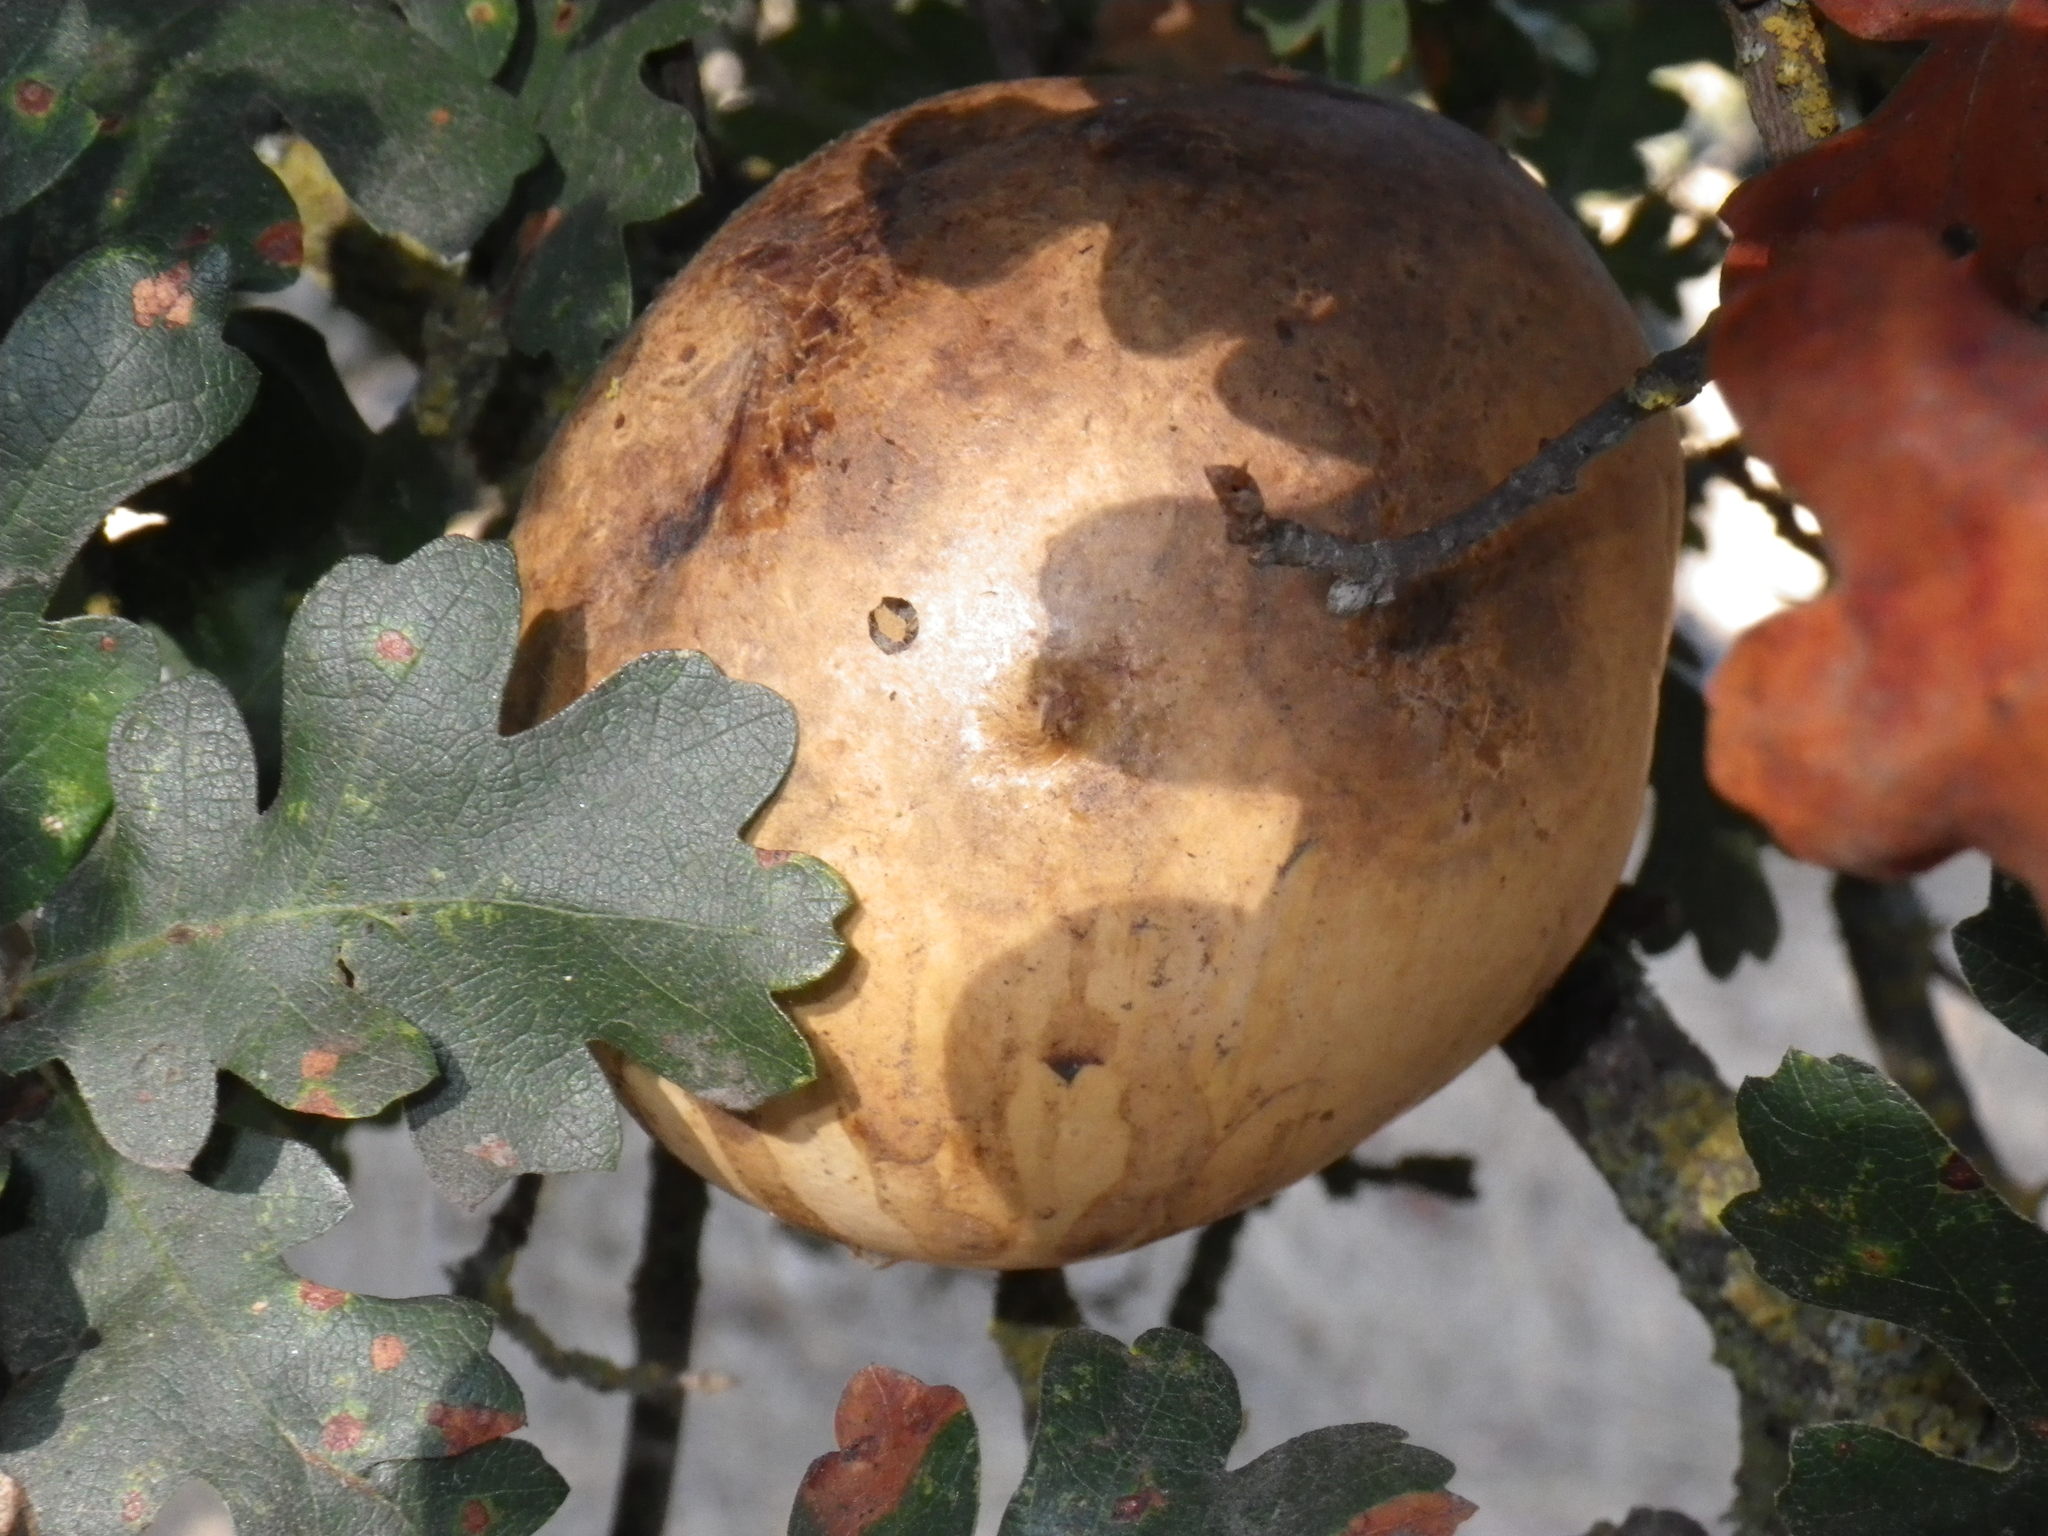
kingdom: Animalia
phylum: Arthropoda
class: Insecta
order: Hymenoptera
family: Cynipidae
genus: Andricus
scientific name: Andricus quercuscalifornicus
